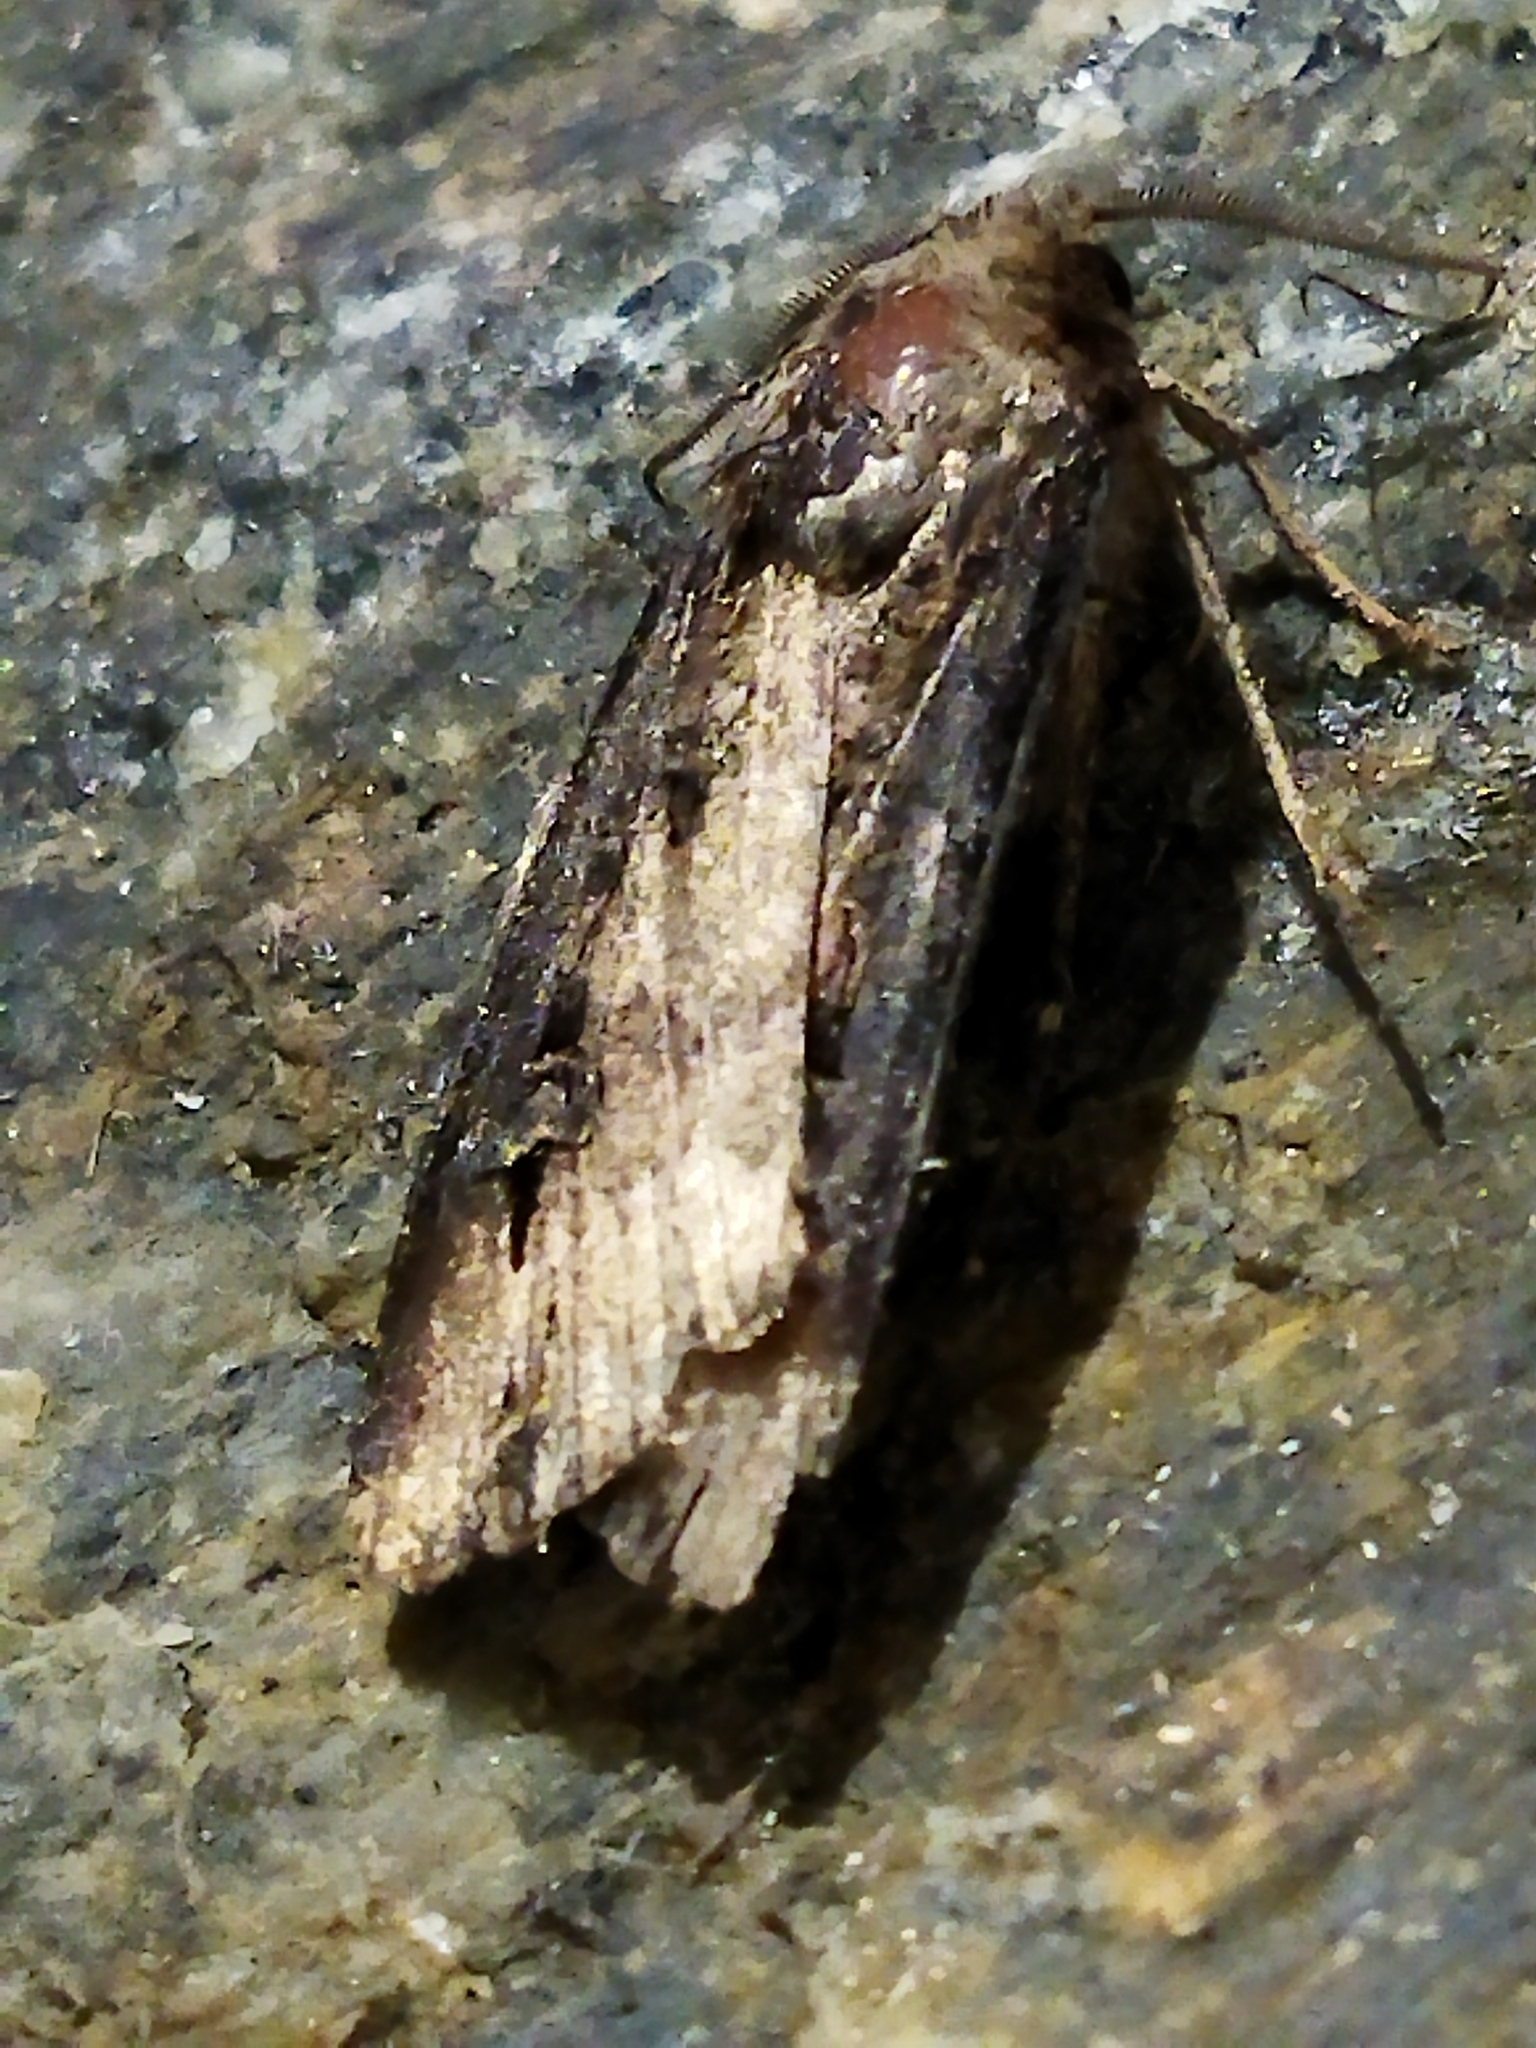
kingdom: Animalia
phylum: Arthropoda
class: Insecta
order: Lepidoptera
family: Noctuidae
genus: Agrotis
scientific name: Agrotis ipsilon
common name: Dark sword-grass
